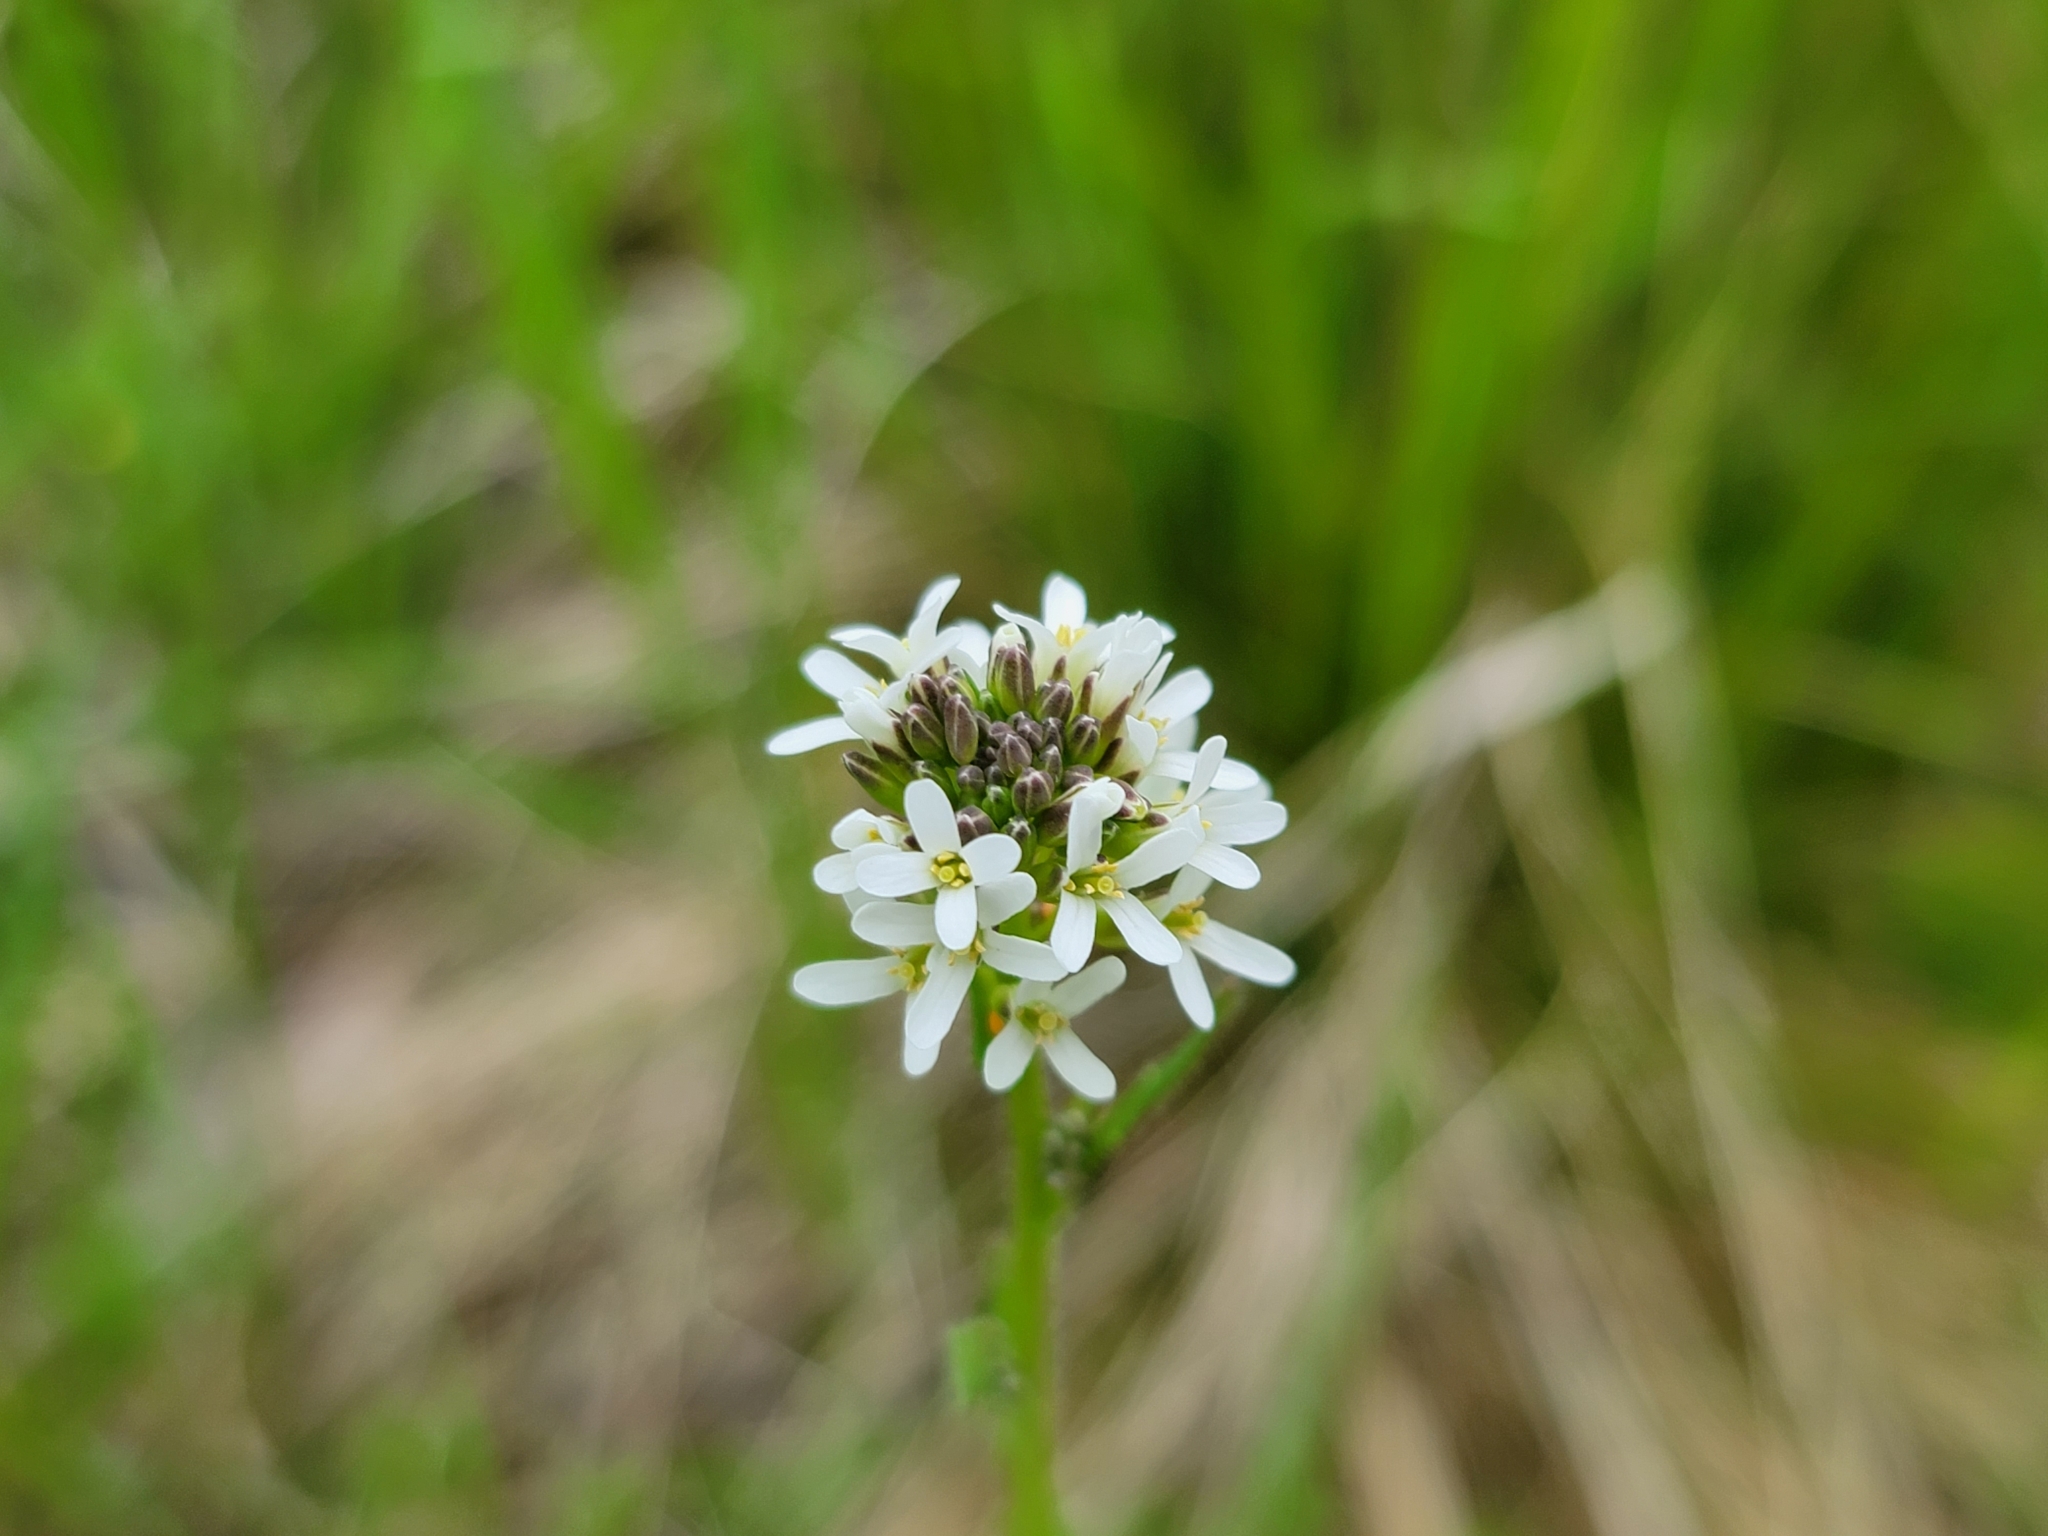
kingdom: Plantae
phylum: Tracheophyta
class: Magnoliopsida
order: Brassicales
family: Brassicaceae
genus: Arabis
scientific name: Arabis hirsuta
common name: Hairy rock-cress
